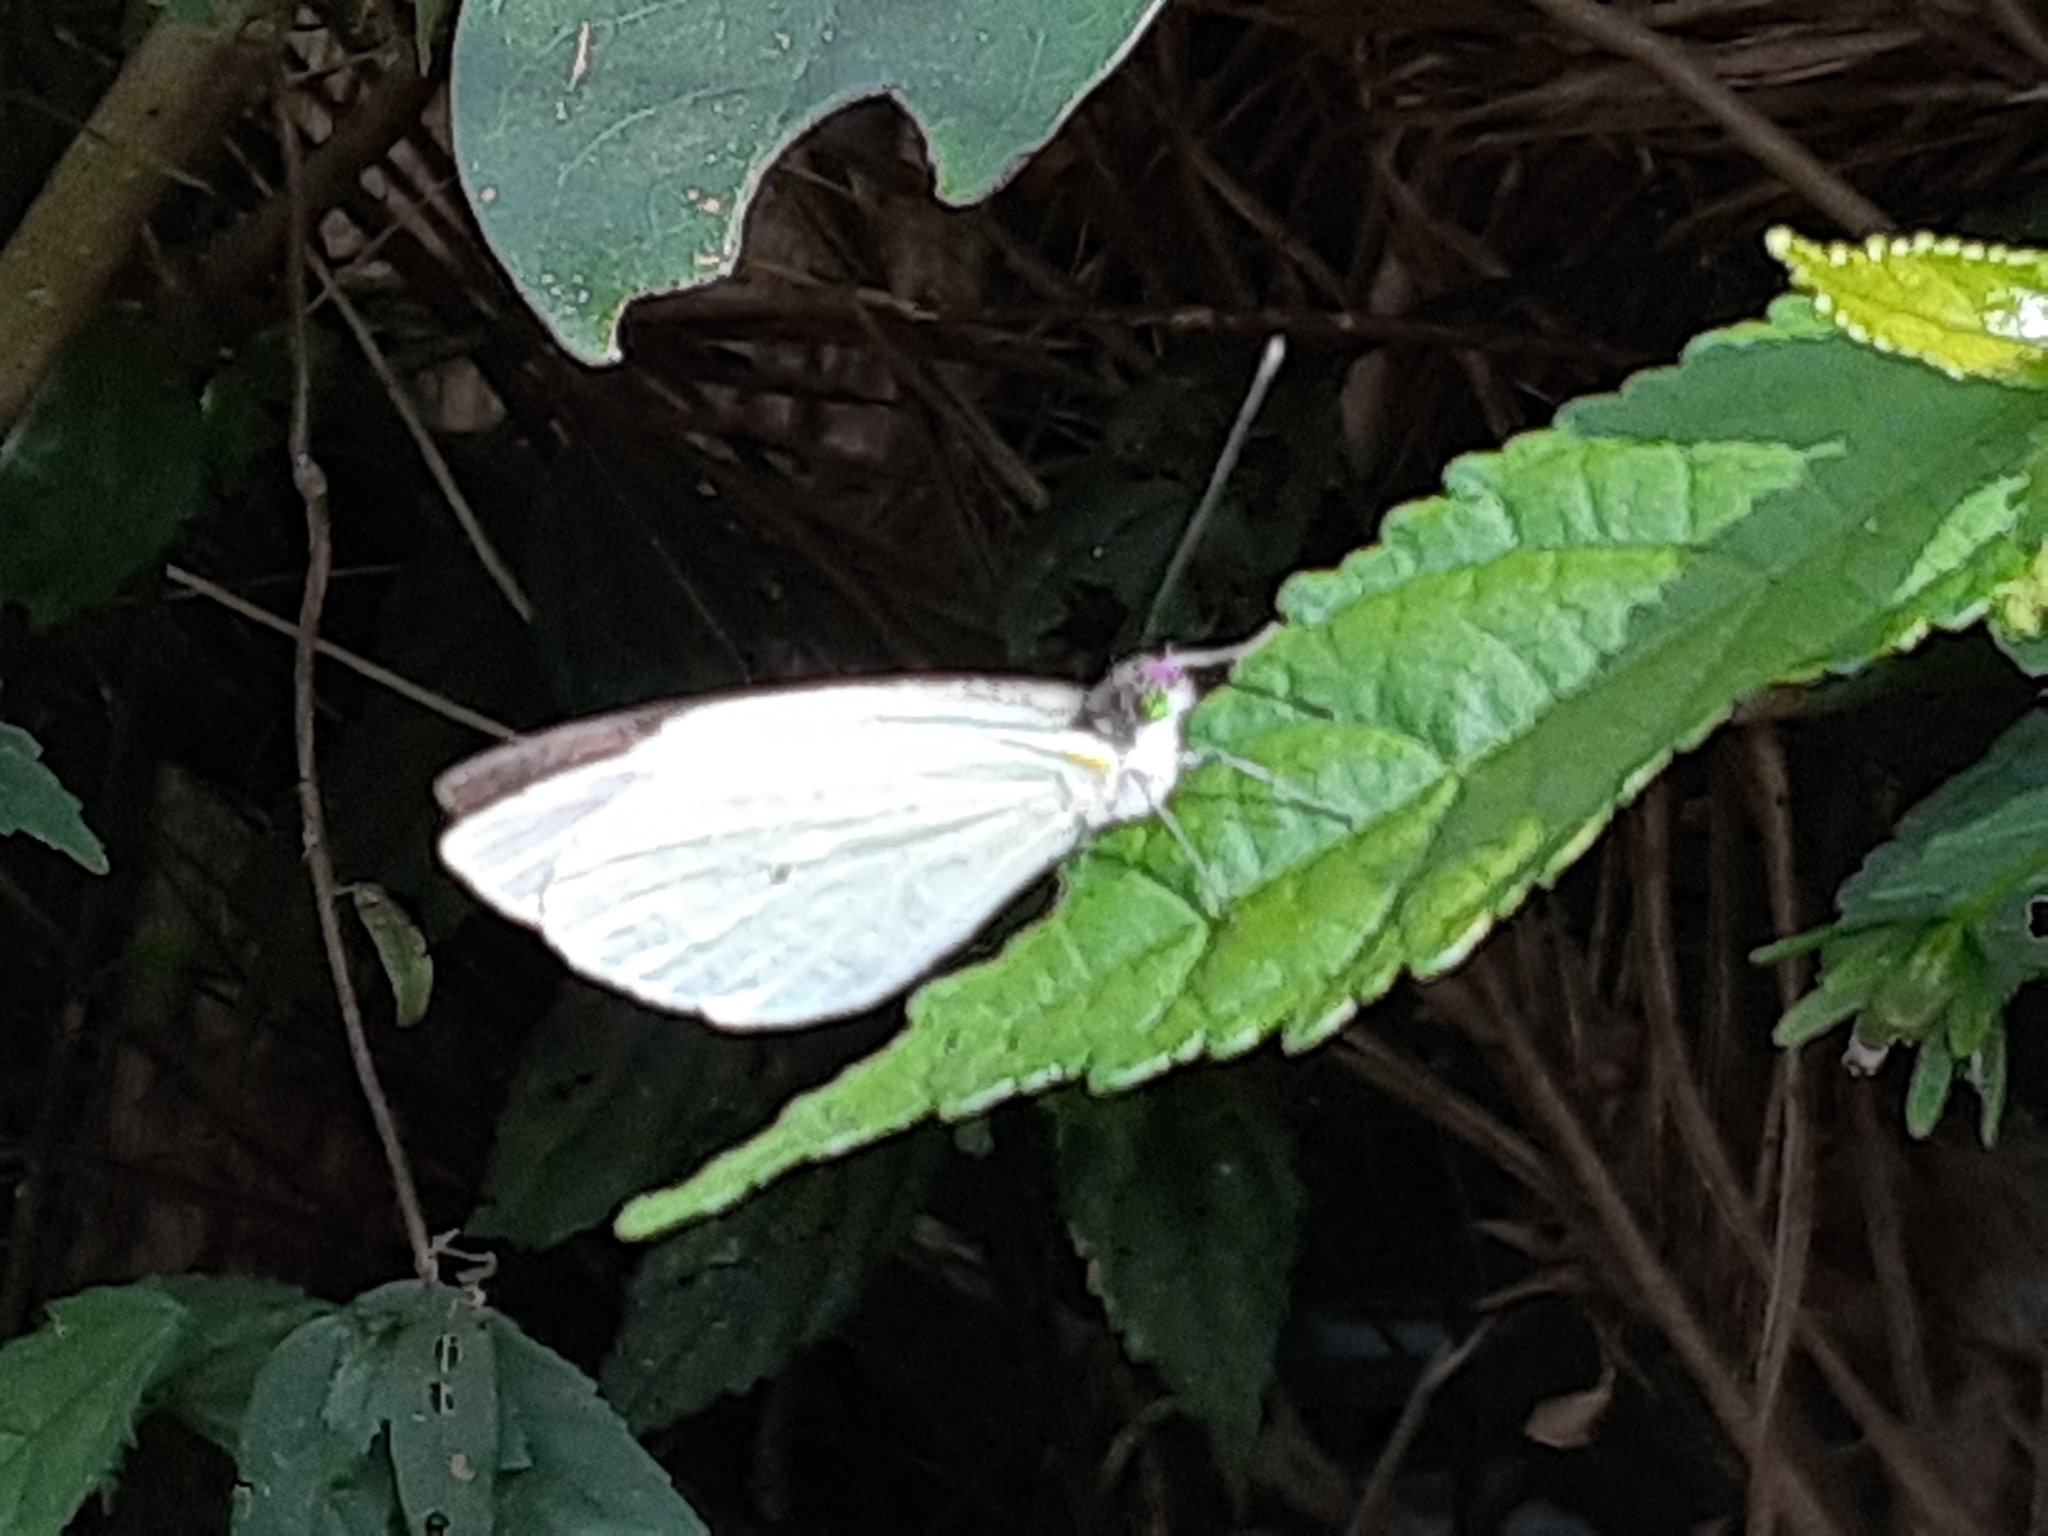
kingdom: Animalia
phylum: Arthropoda
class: Insecta
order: Lepidoptera
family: Pieridae
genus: Leptophobia
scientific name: Leptophobia aripa
